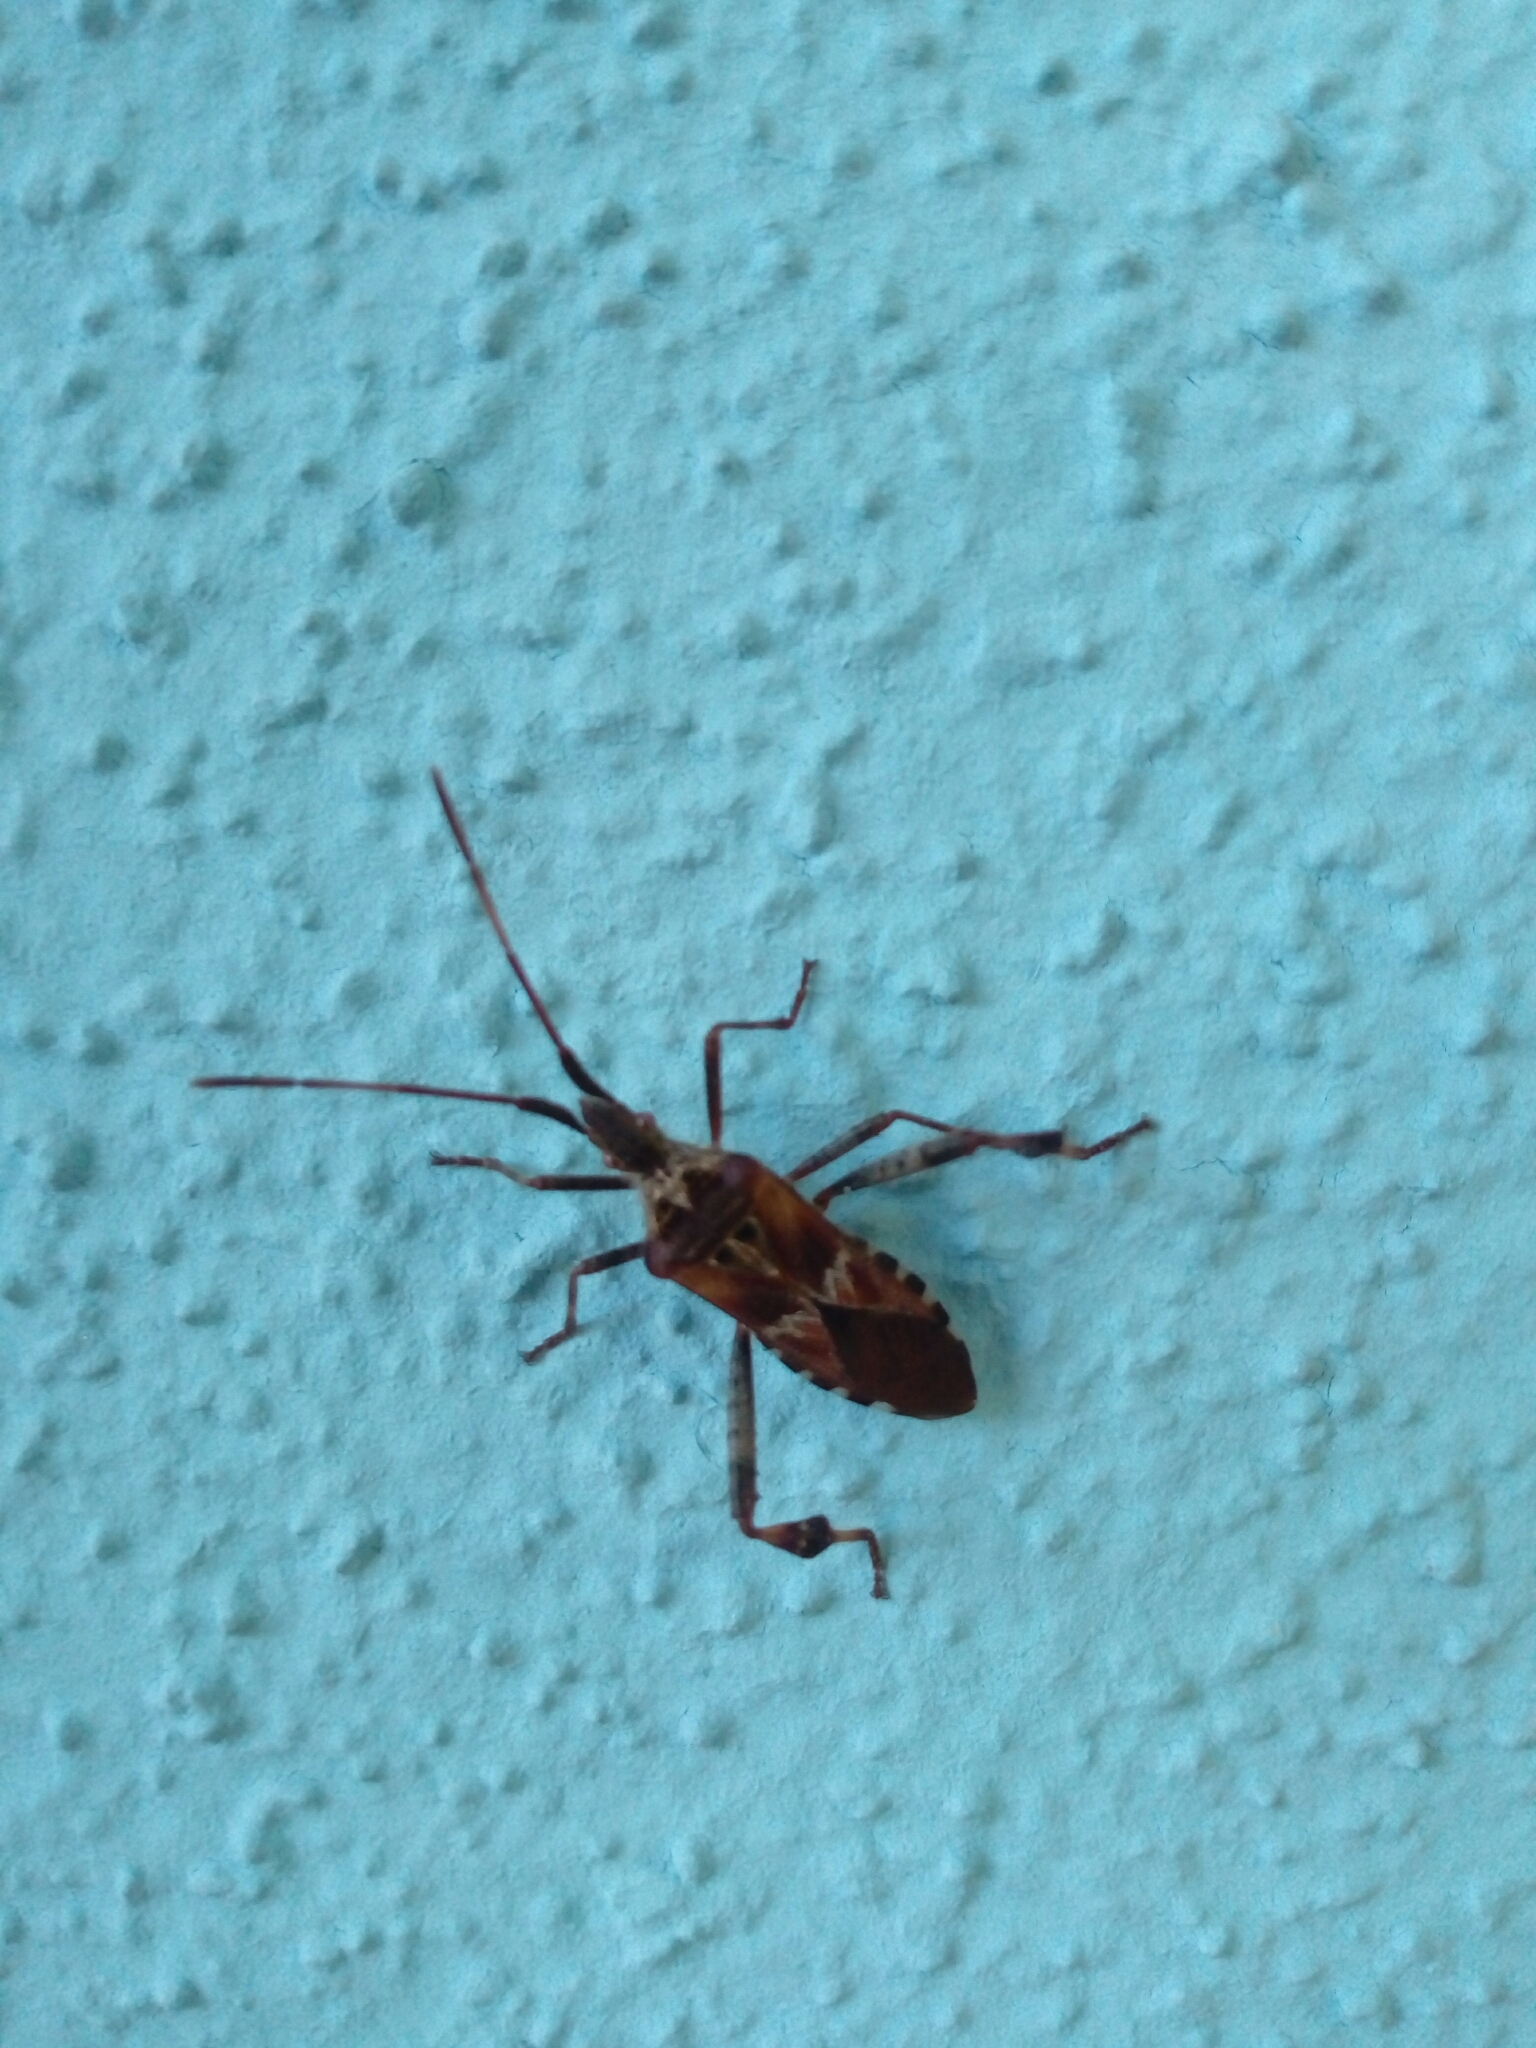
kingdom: Animalia
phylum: Arthropoda
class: Insecta
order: Hemiptera
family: Coreidae
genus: Leptoglossus
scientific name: Leptoglossus occidentalis
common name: Western conifer-seed bug
